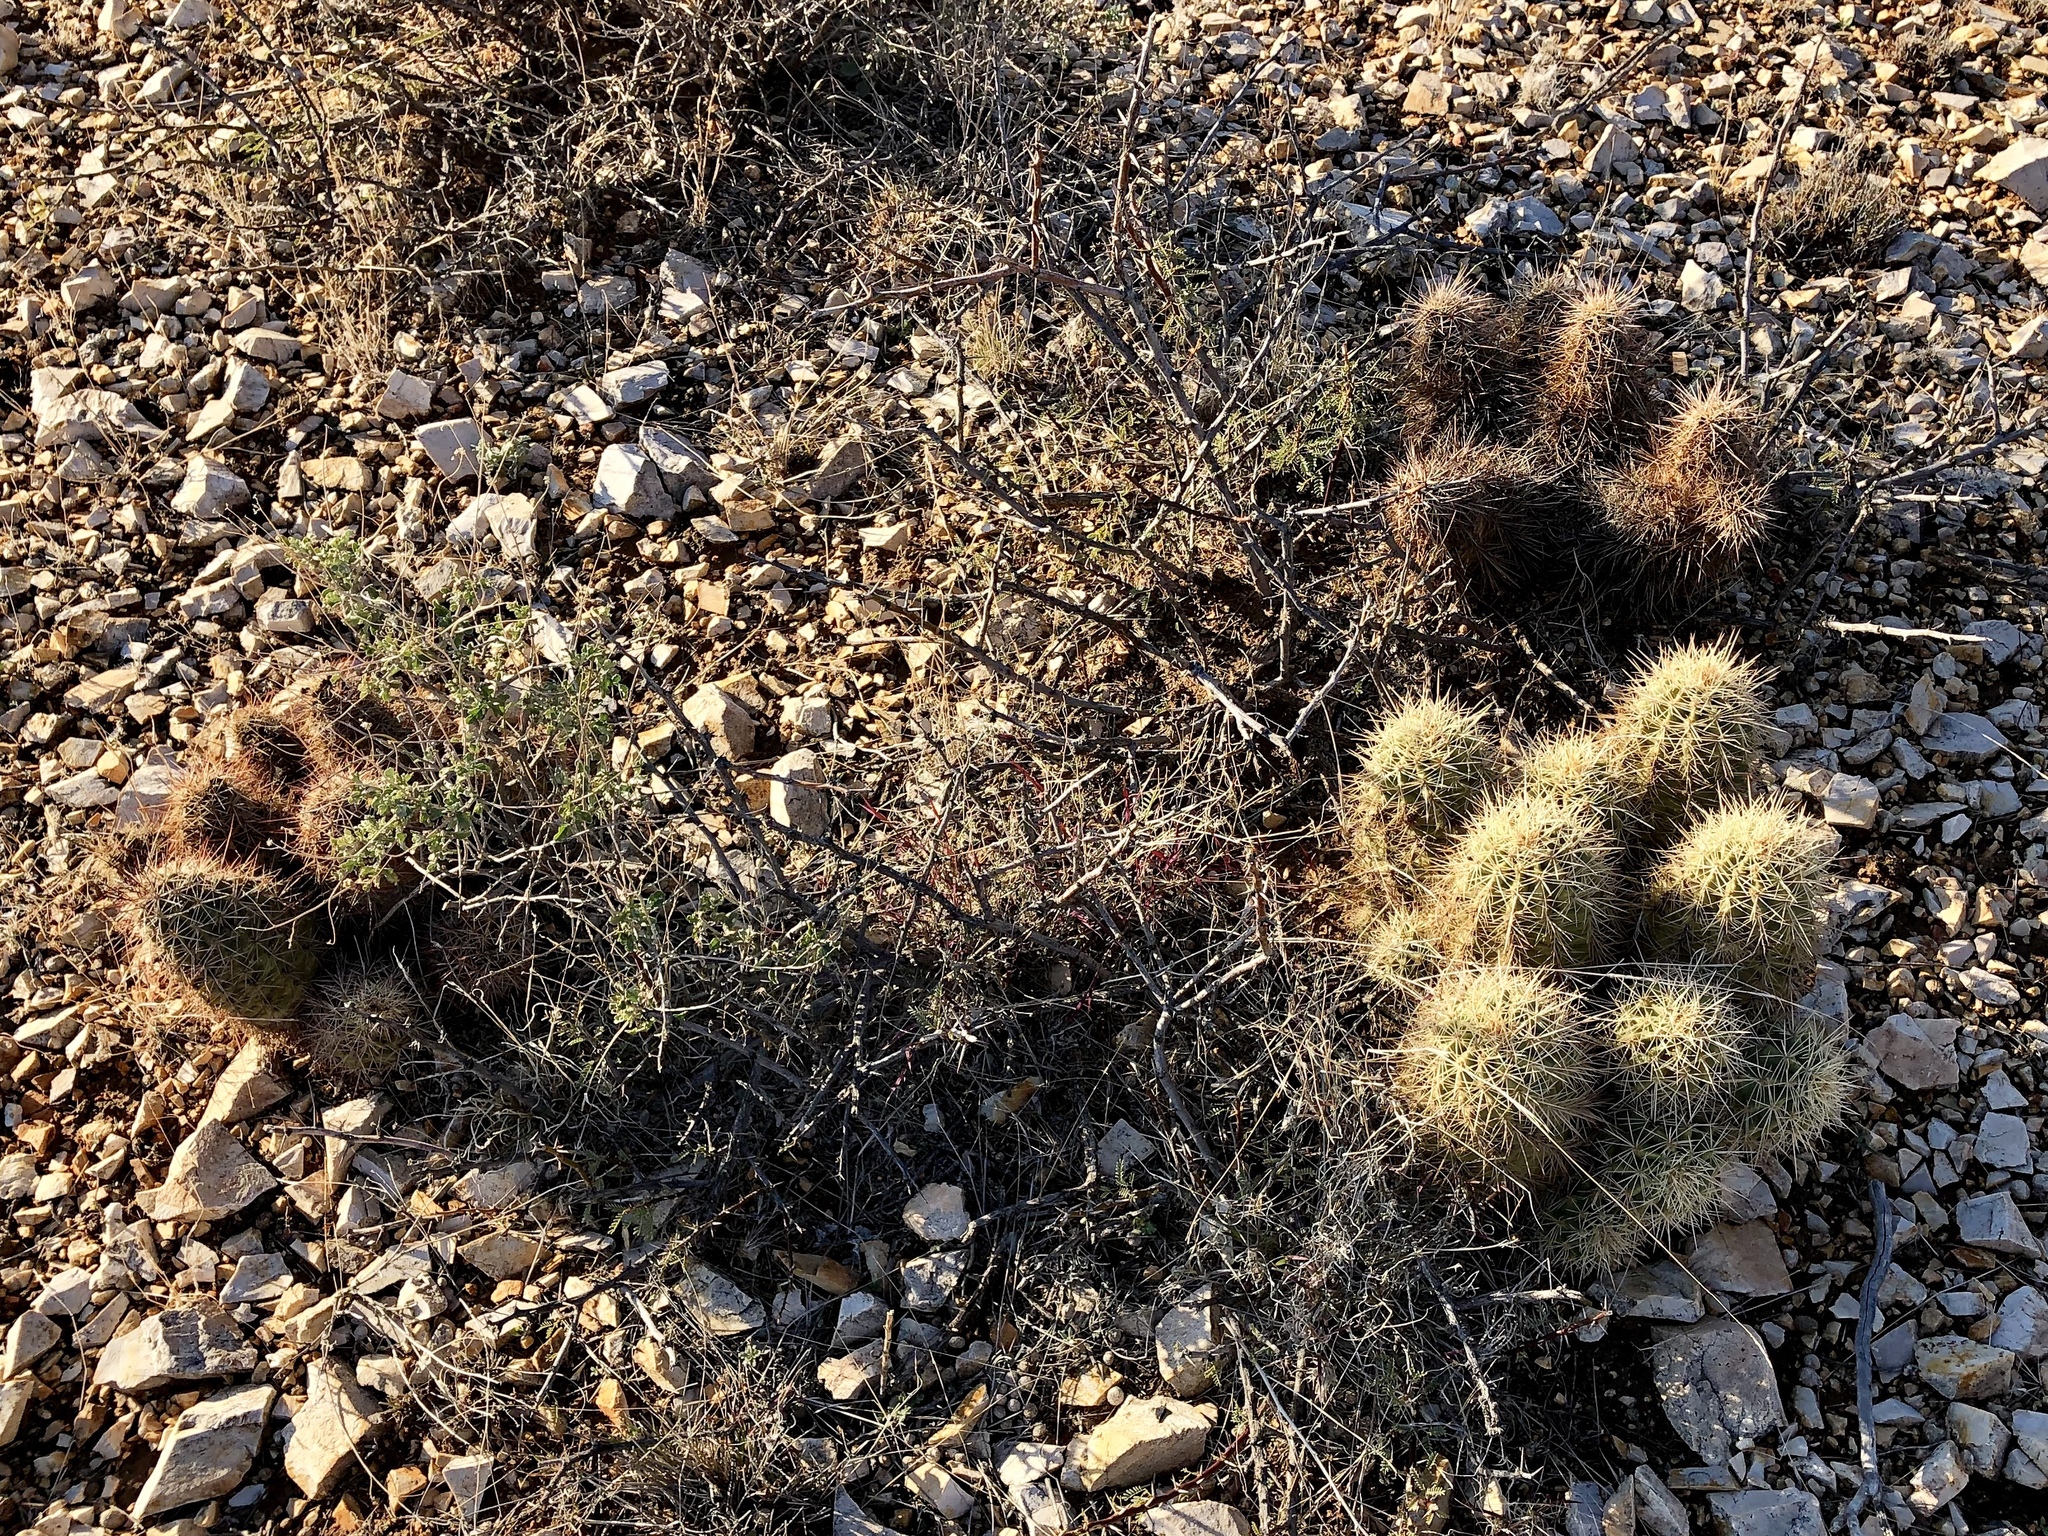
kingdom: Plantae
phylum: Tracheophyta
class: Magnoliopsida
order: Caryophyllales
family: Cactaceae
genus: Echinocereus
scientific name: Echinocereus coccineus
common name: Scarlet hedgehog cactus
